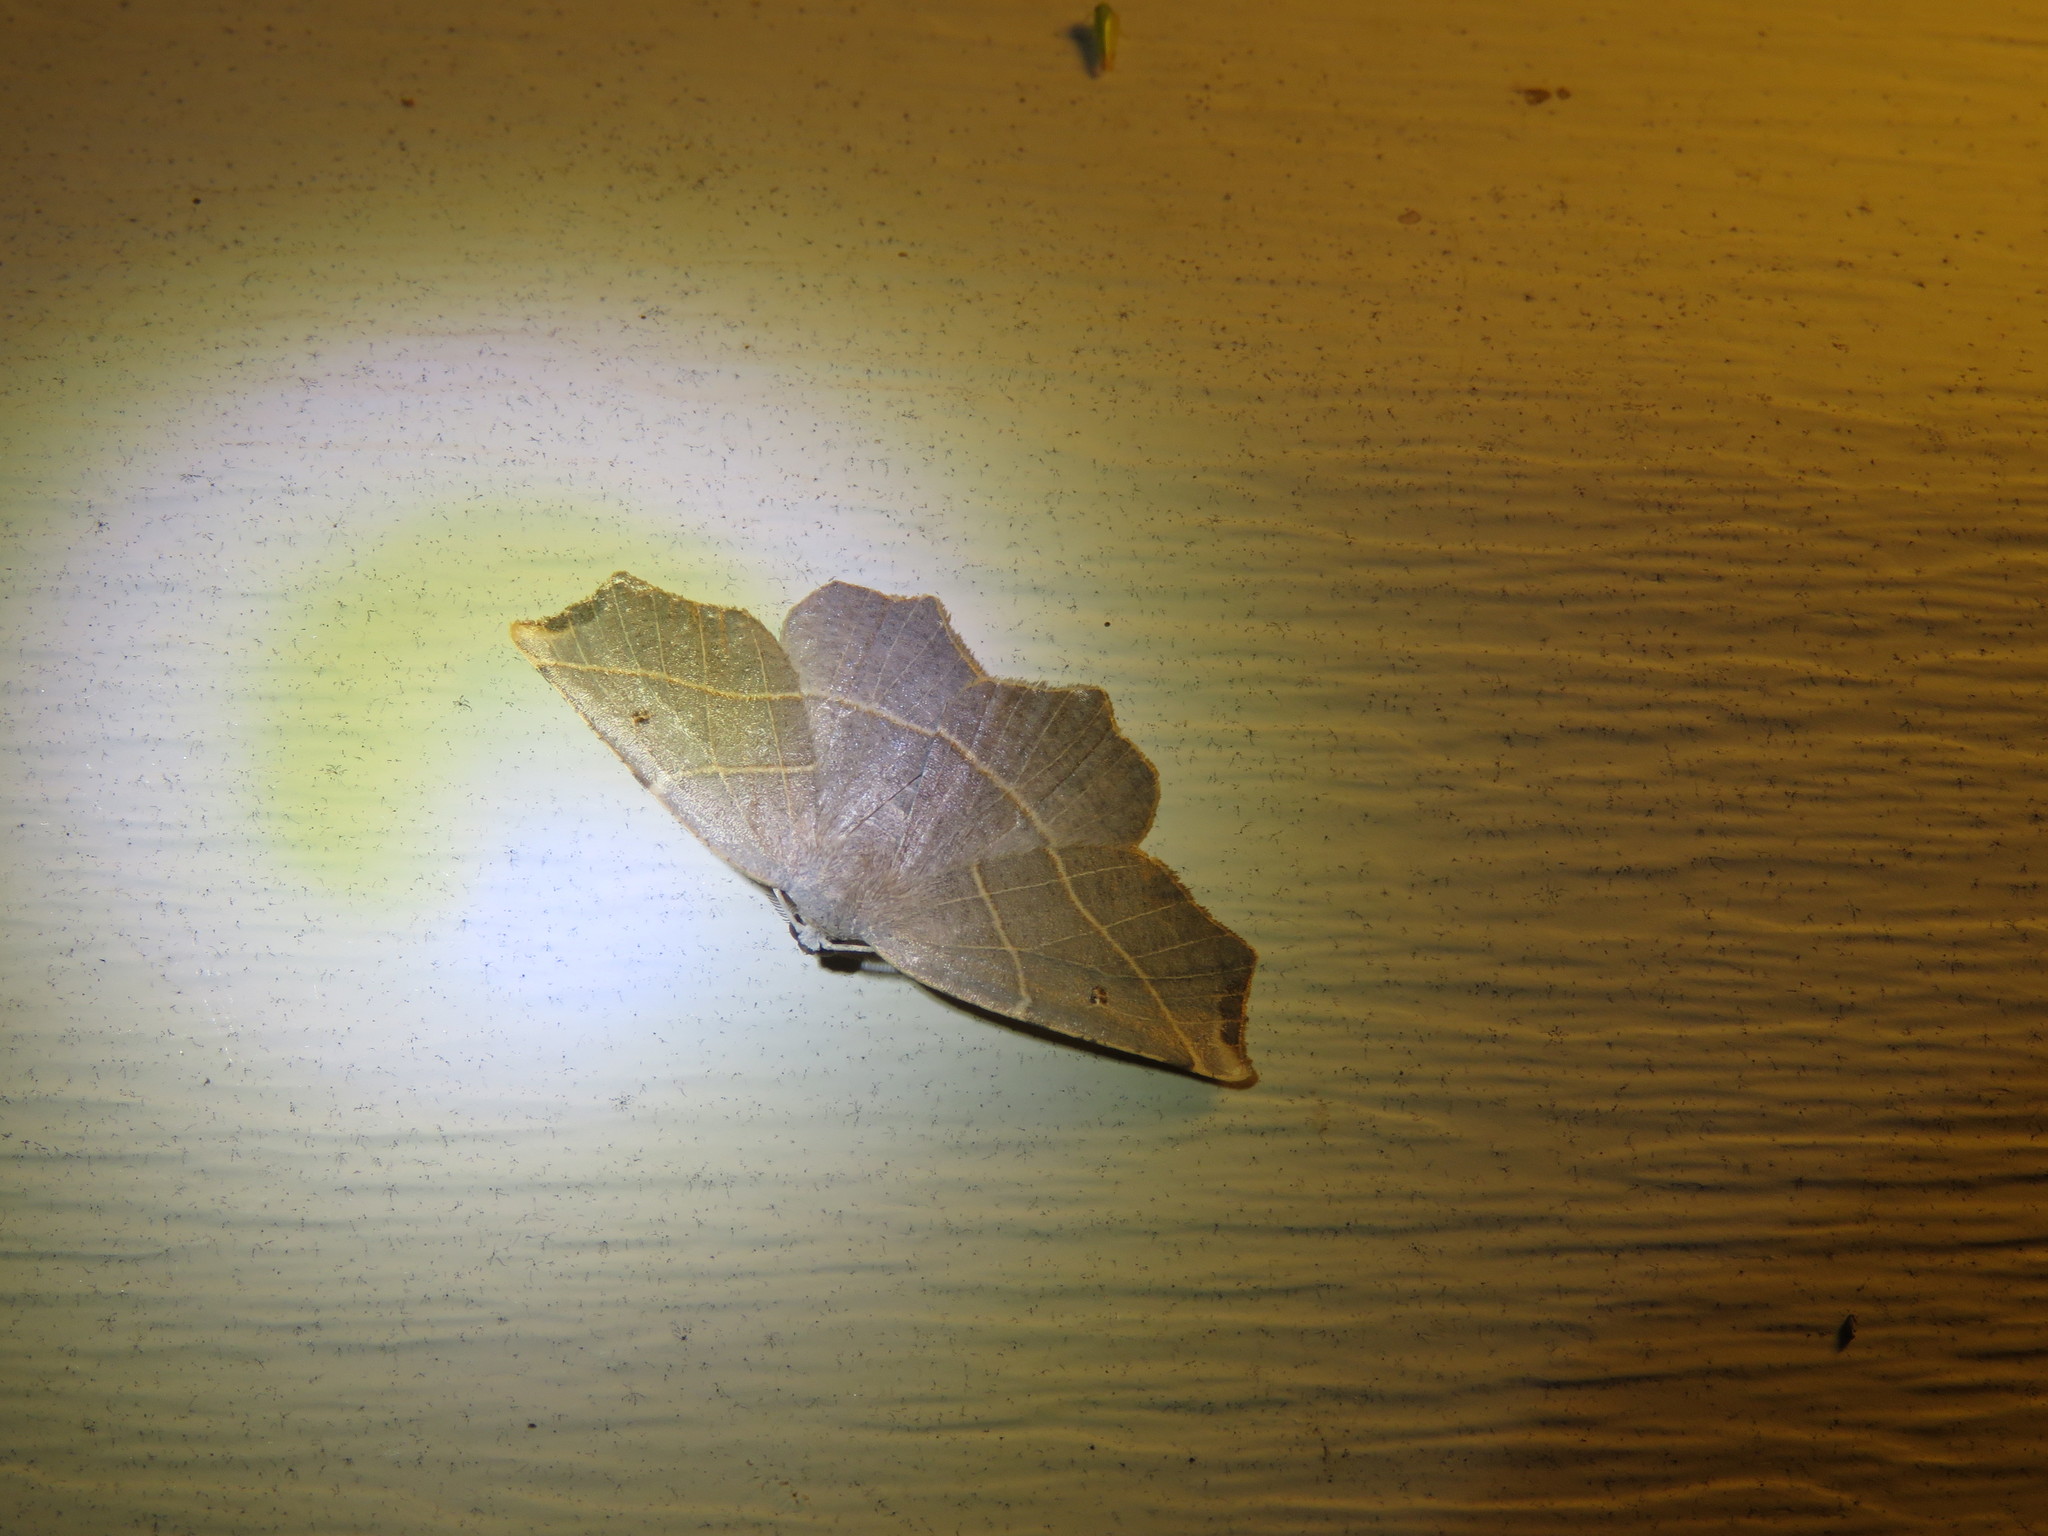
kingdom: Animalia
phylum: Arthropoda
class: Insecta
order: Lepidoptera
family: Geometridae
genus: Metanema
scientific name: Metanema inatomaria
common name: Pale metanema
